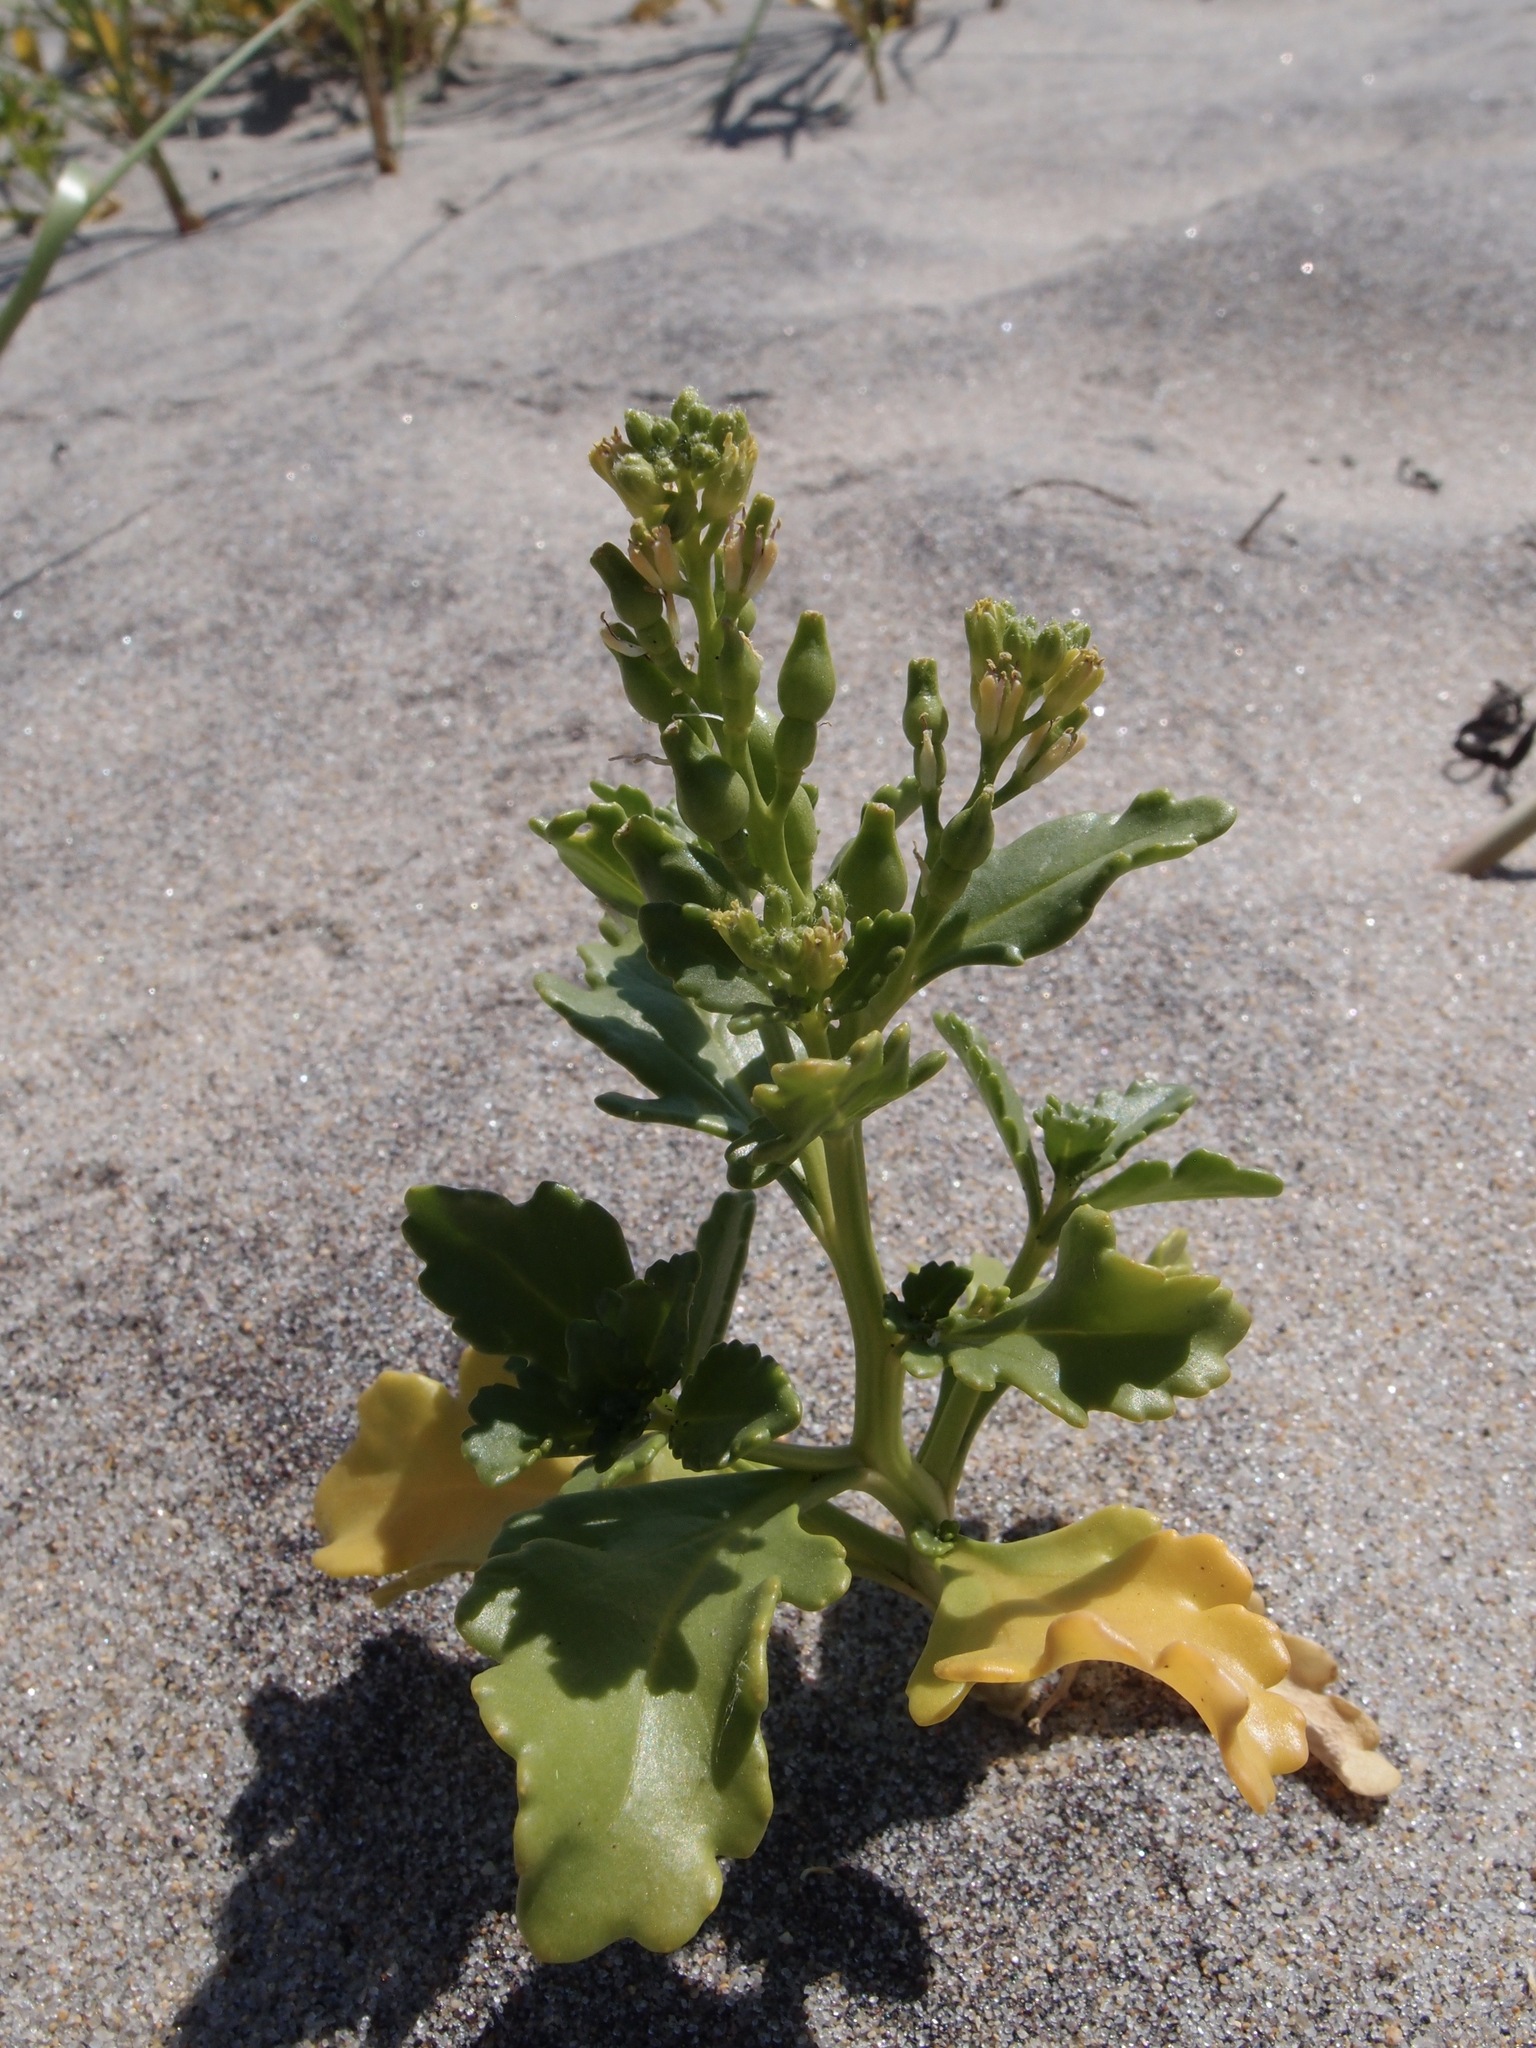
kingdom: Plantae
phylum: Tracheophyta
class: Magnoliopsida
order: Brassicales
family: Brassicaceae
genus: Cakile
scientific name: Cakile edentula
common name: American sea rocket
